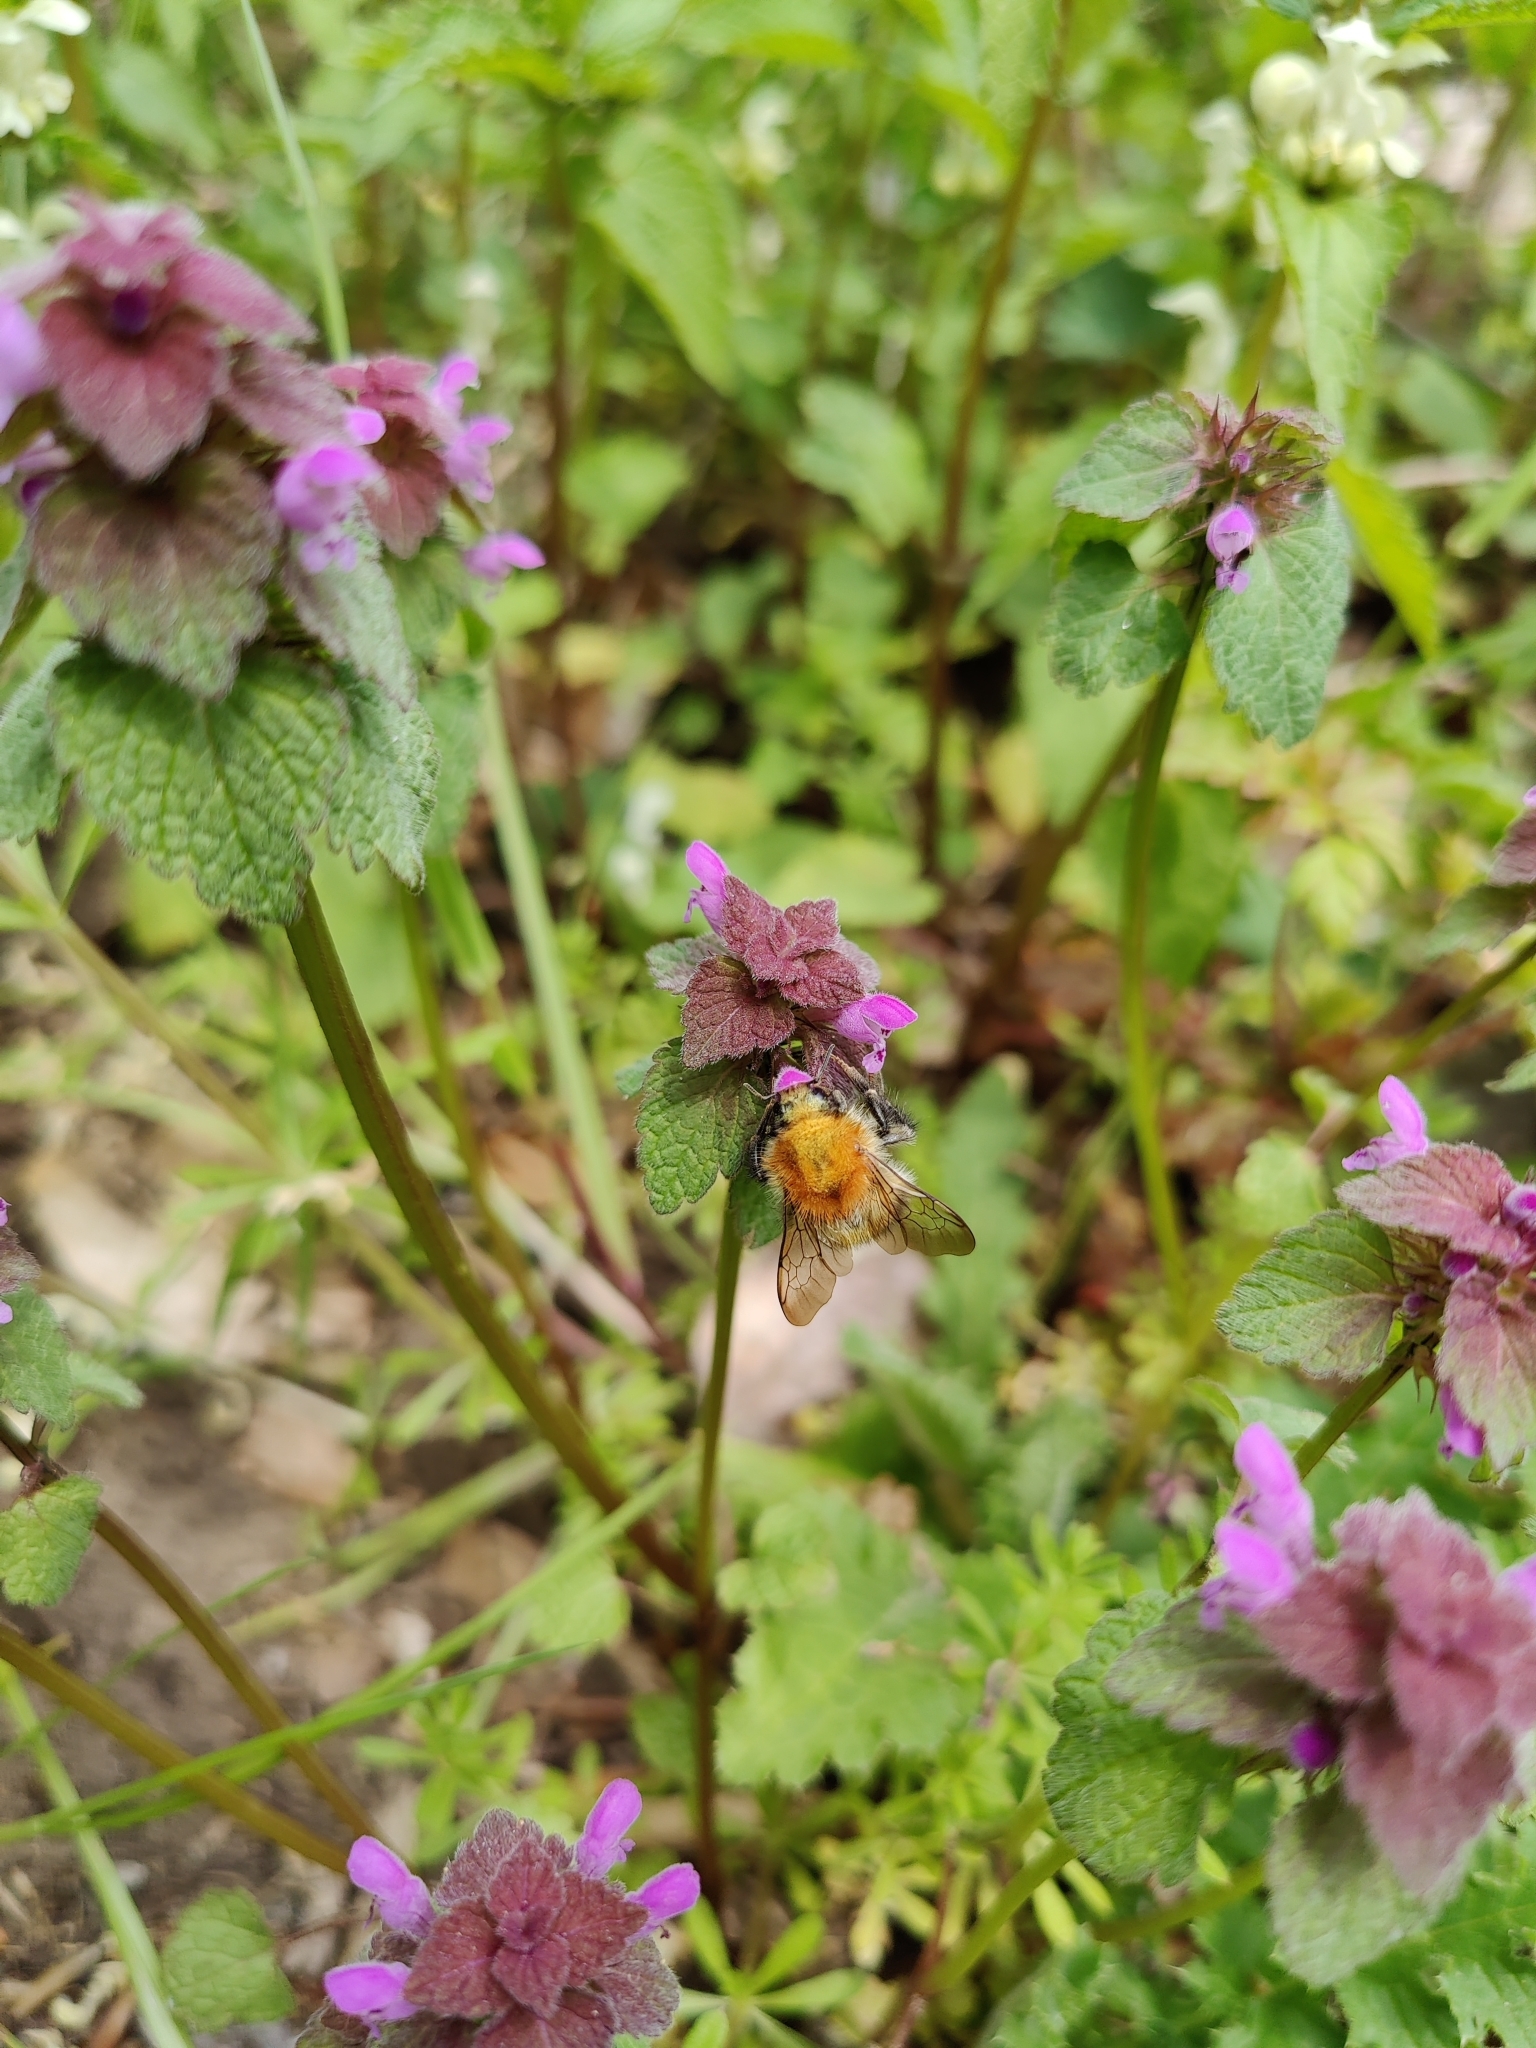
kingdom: Animalia
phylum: Arthropoda
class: Insecta
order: Hymenoptera
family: Apidae
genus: Bombus
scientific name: Bombus pascuorum
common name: Common carder bee
